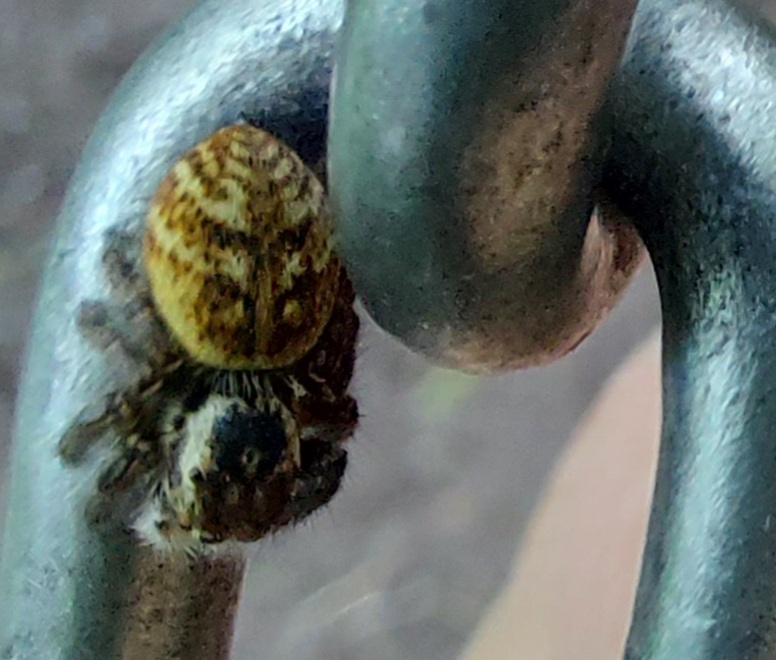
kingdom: Animalia
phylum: Arthropoda
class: Arachnida
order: Araneae
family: Salticidae
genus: Carrhotus
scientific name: Carrhotus xanthogramma
